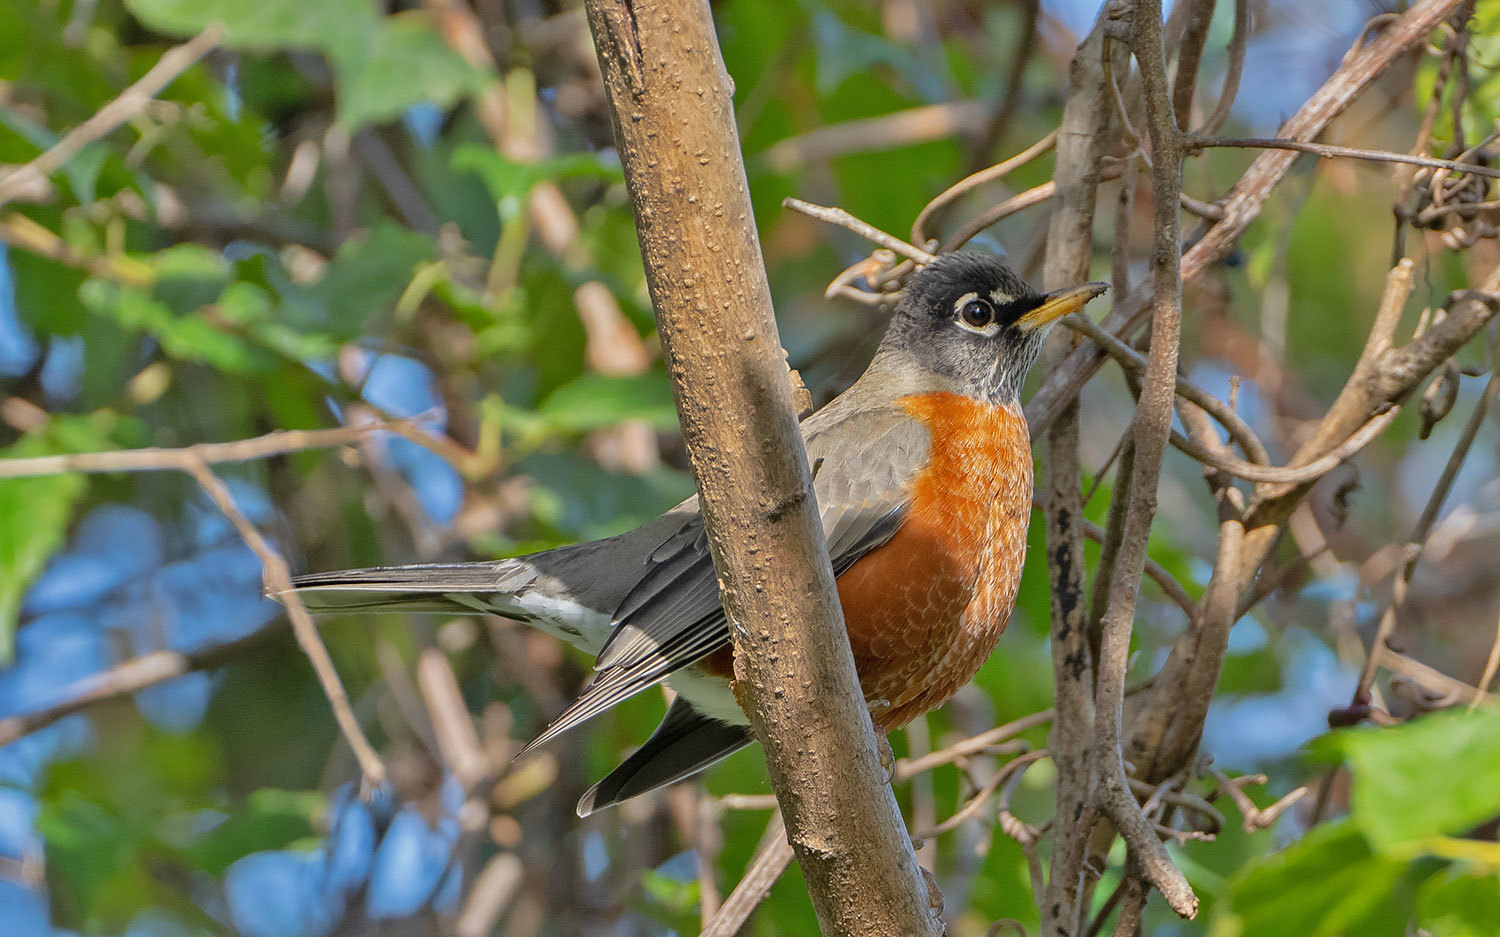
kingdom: Animalia
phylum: Chordata
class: Aves
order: Passeriformes
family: Turdidae
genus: Turdus
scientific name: Turdus migratorius
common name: American robin
